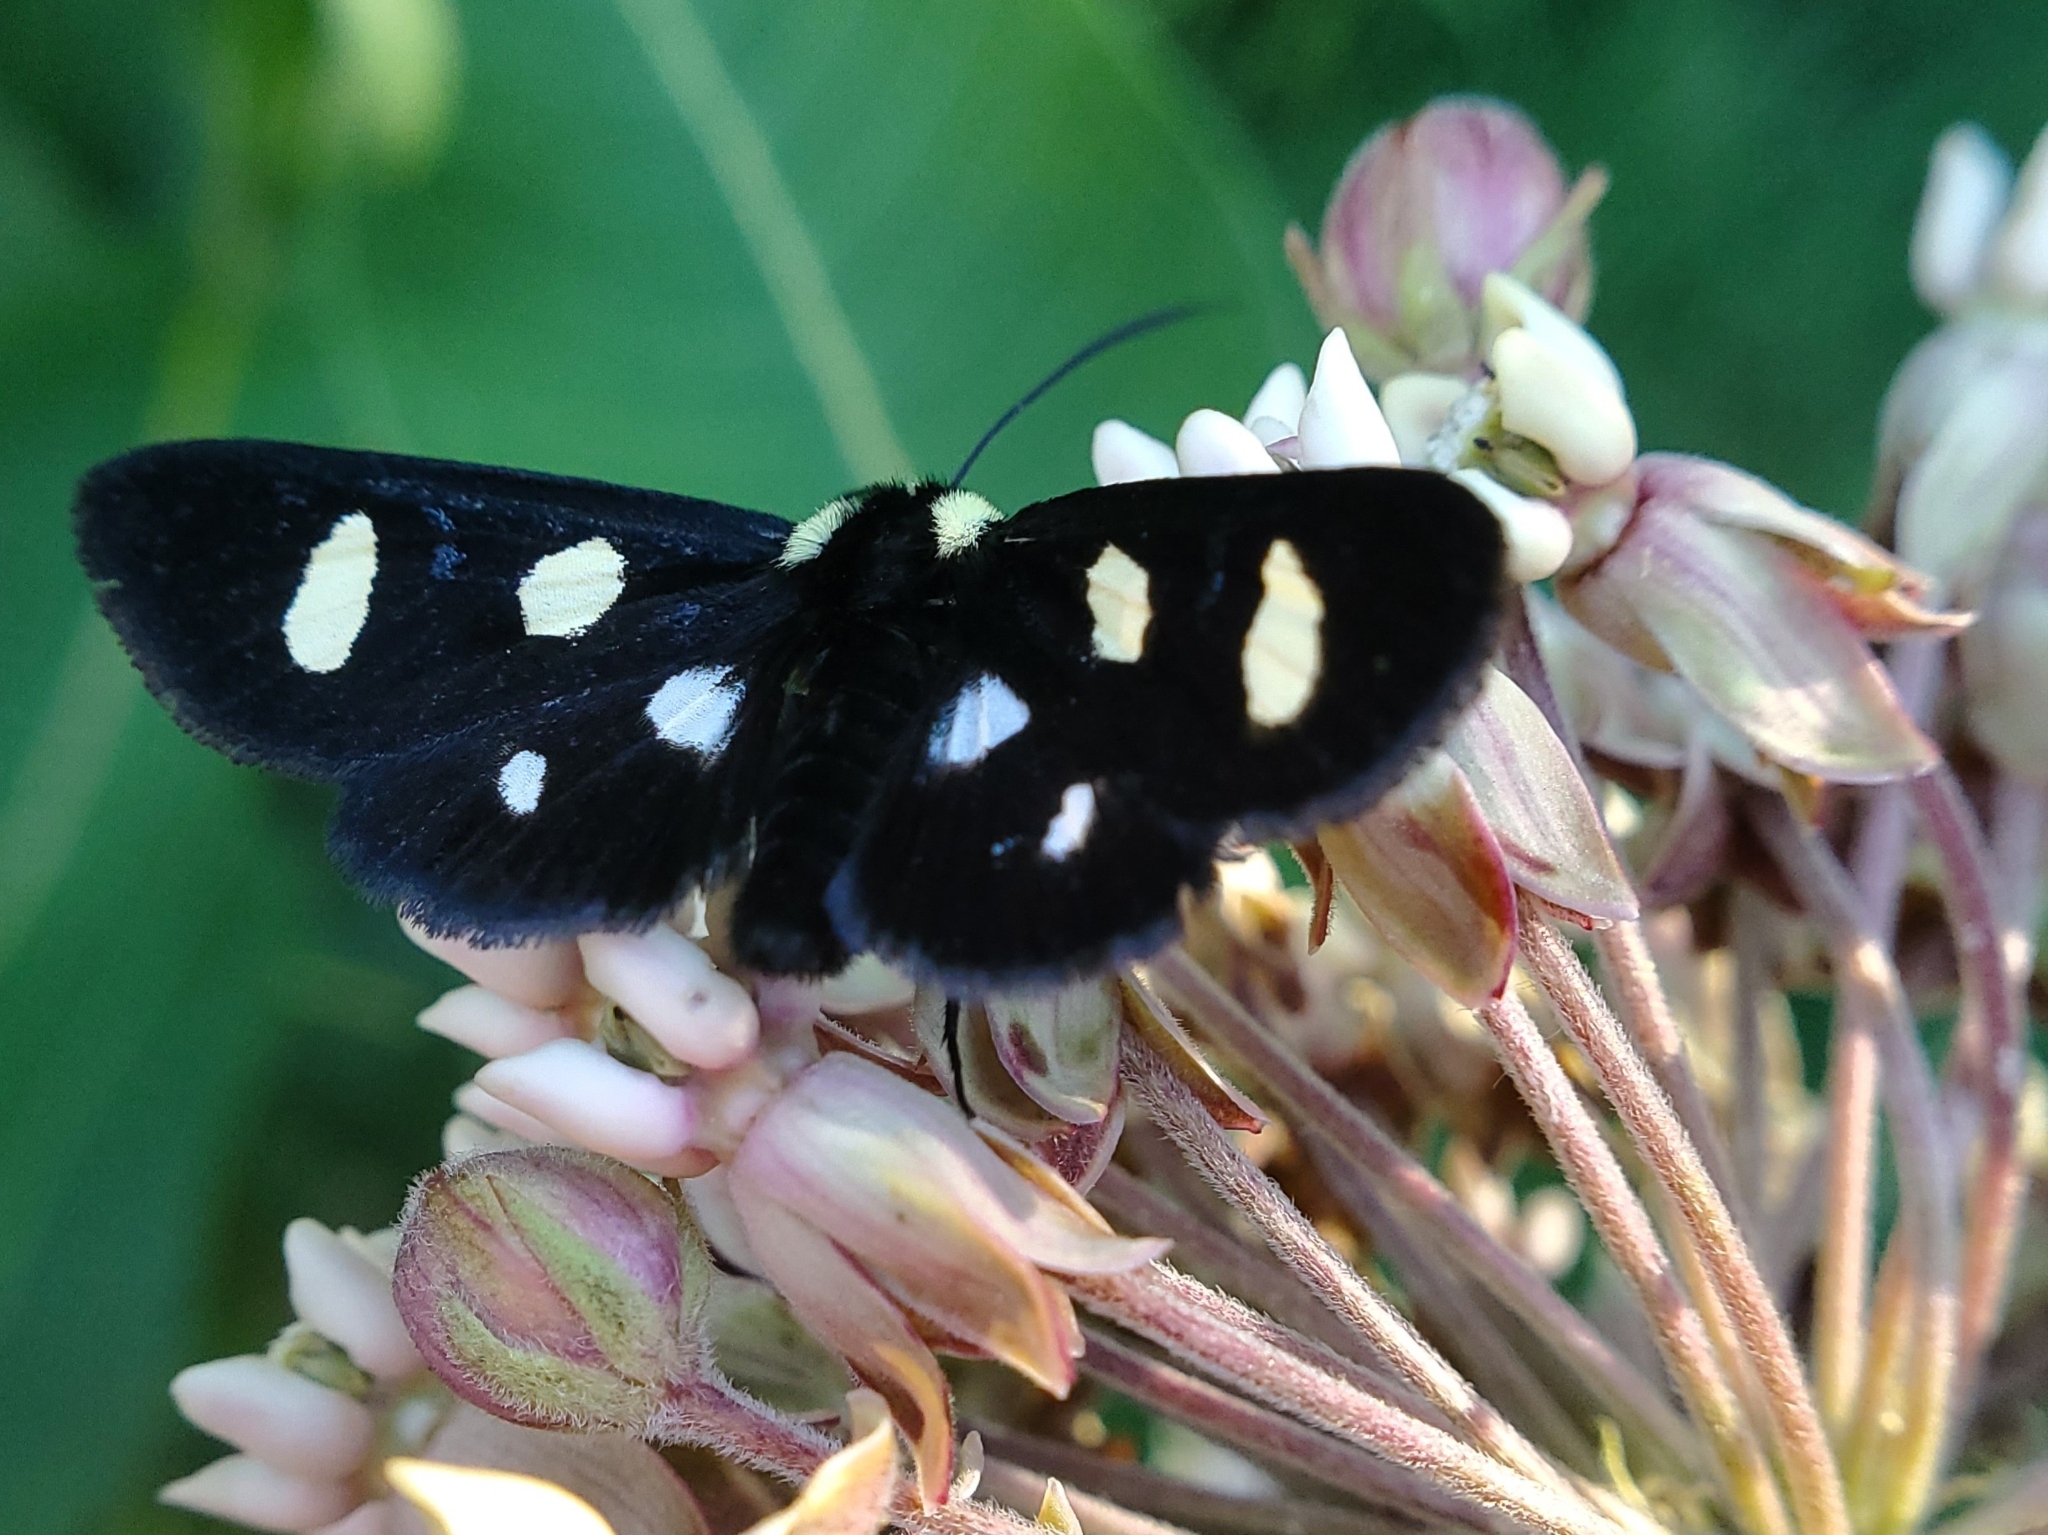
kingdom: Animalia
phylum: Arthropoda
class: Insecta
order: Lepidoptera
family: Noctuidae
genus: Alypia
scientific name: Alypia octomaculata
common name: Eight-spotted forester
